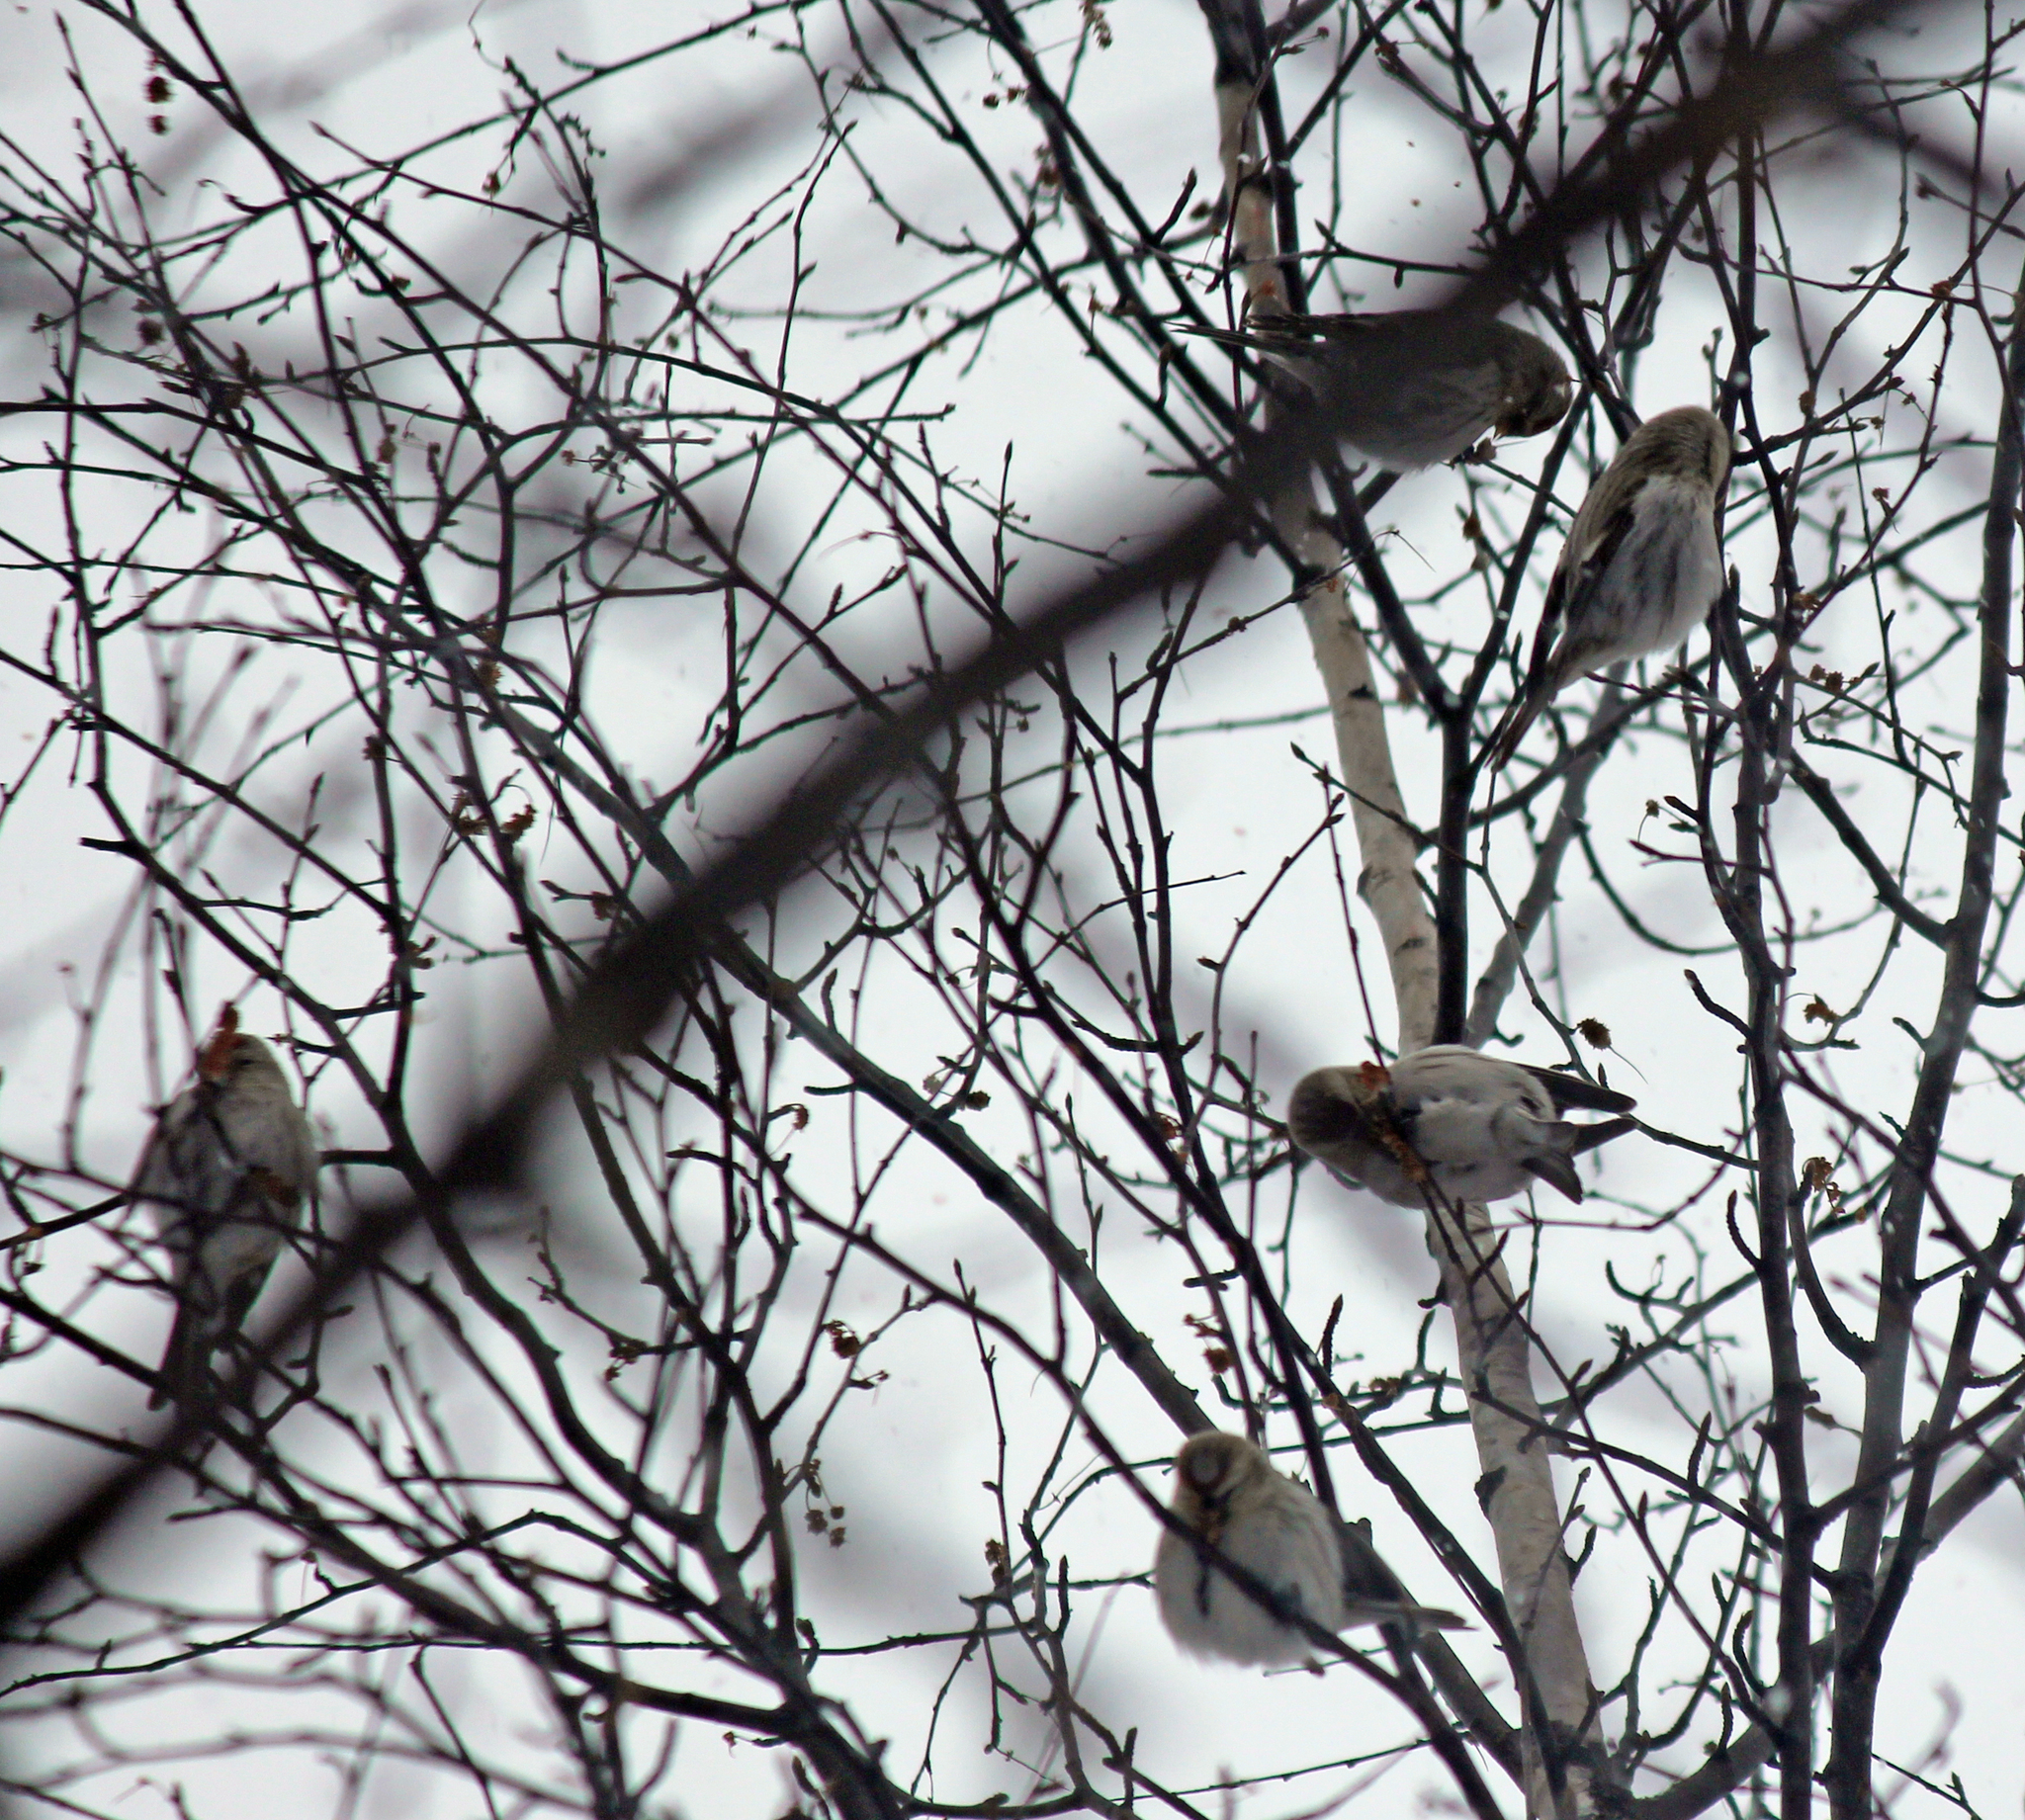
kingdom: Animalia
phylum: Chordata
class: Aves
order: Passeriformes
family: Fringillidae
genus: Acanthis
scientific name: Acanthis flammea
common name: Common redpoll
